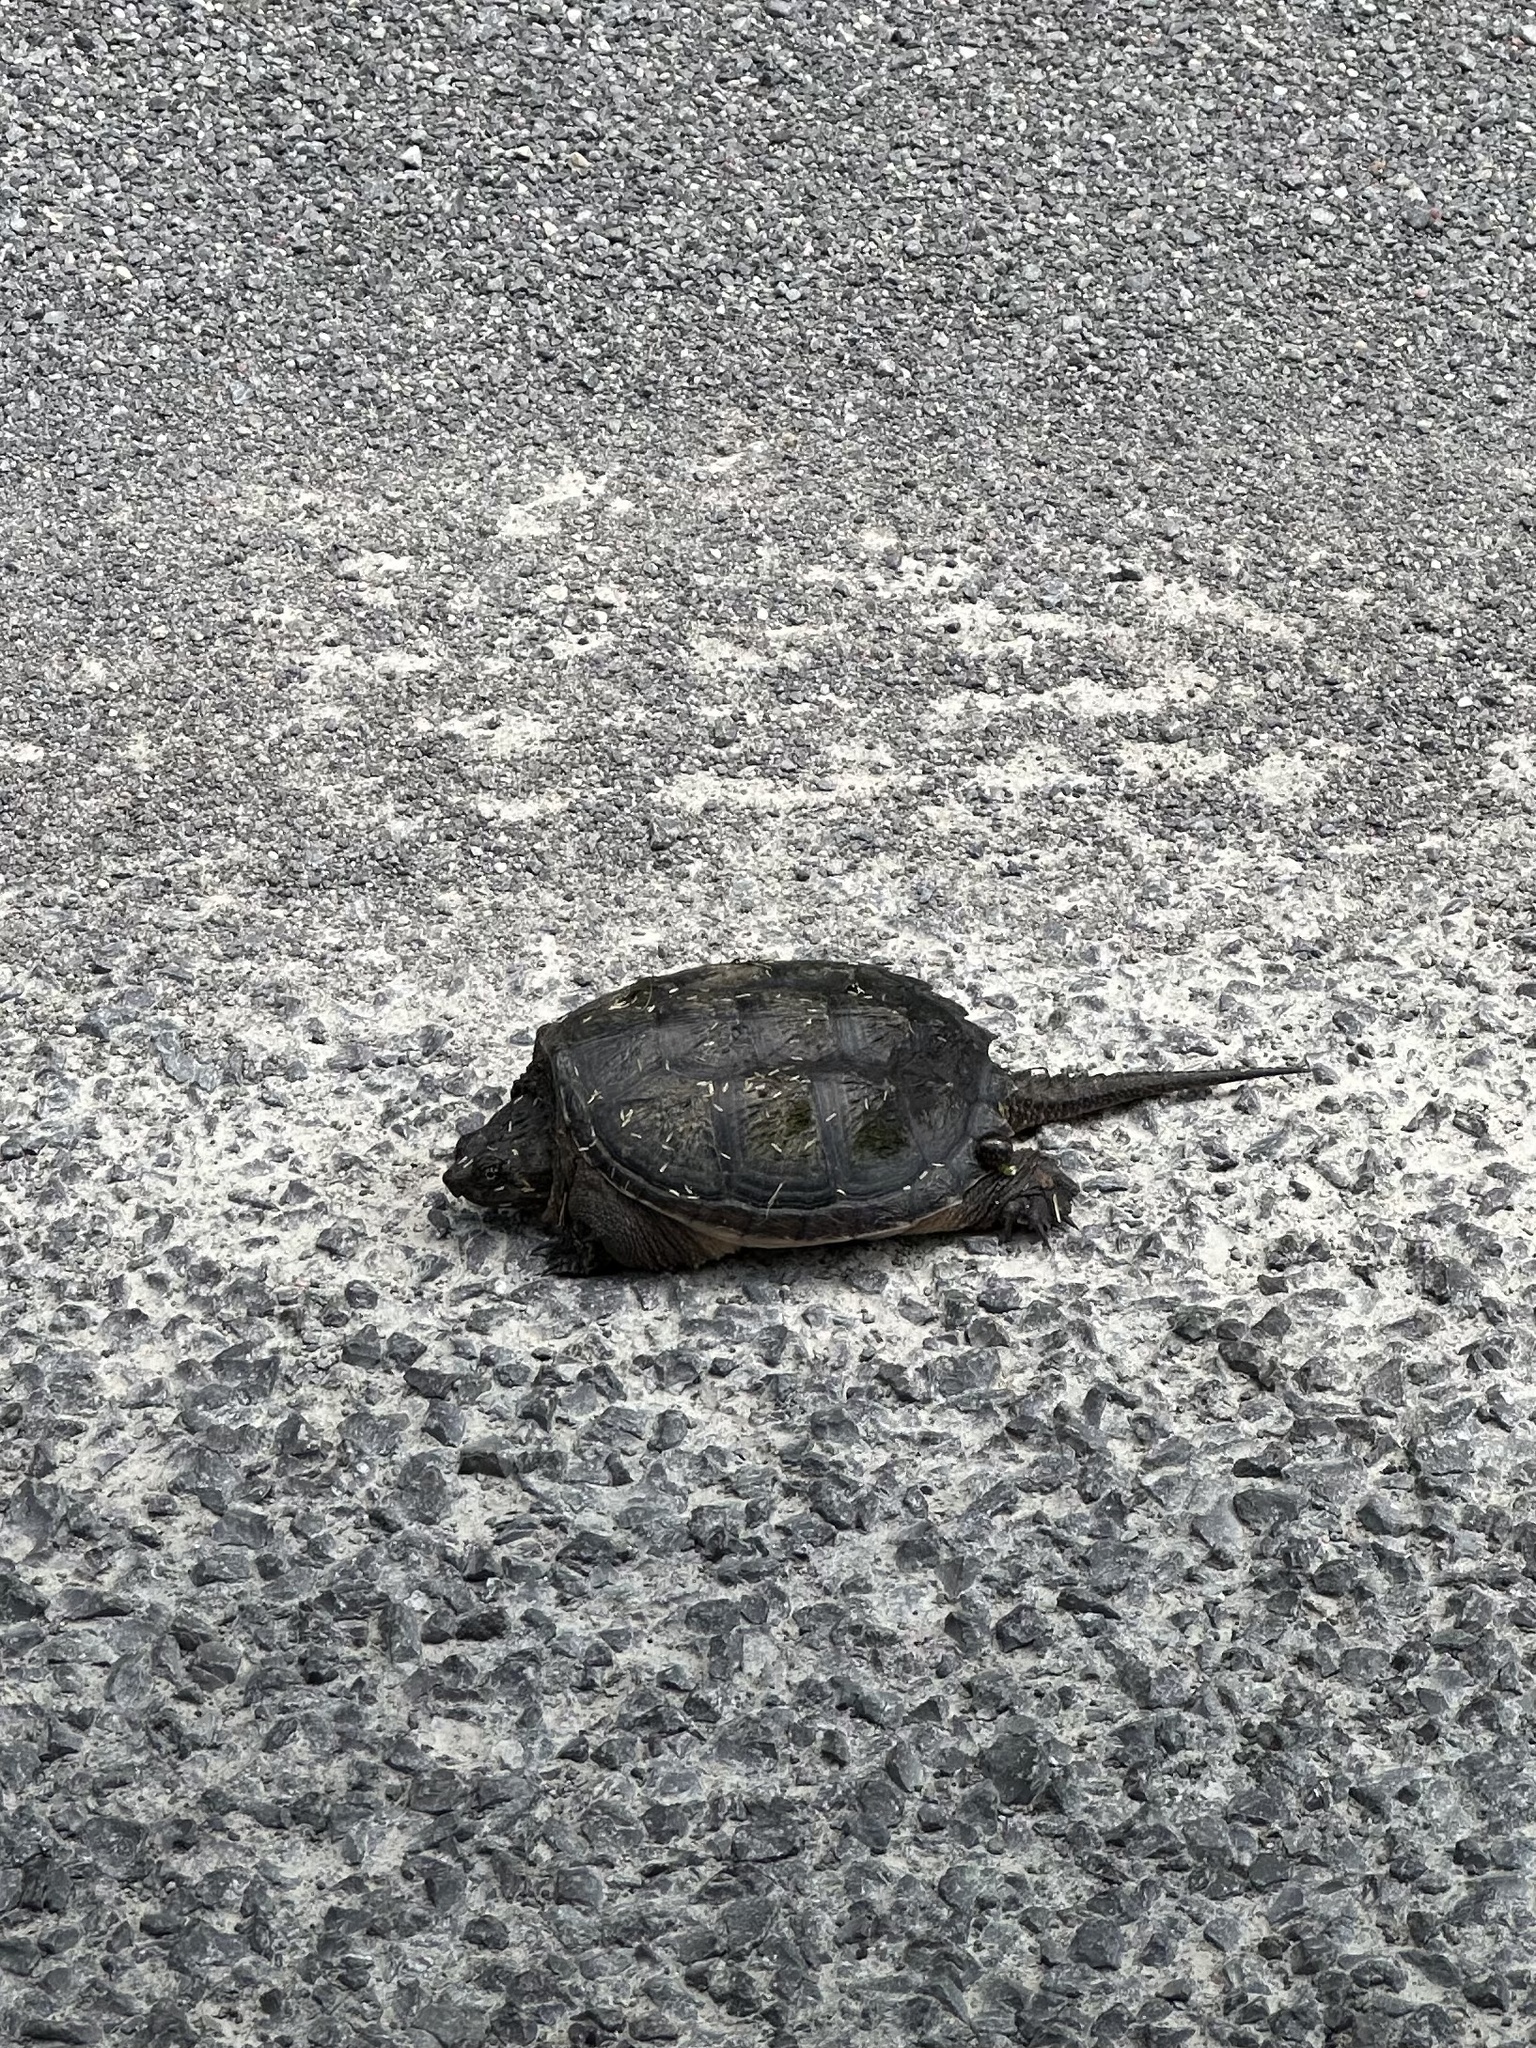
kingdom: Animalia
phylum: Chordata
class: Testudines
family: Chelydridae
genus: Chelydra
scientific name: Chelydra serpentina
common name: Common snapping turtle
